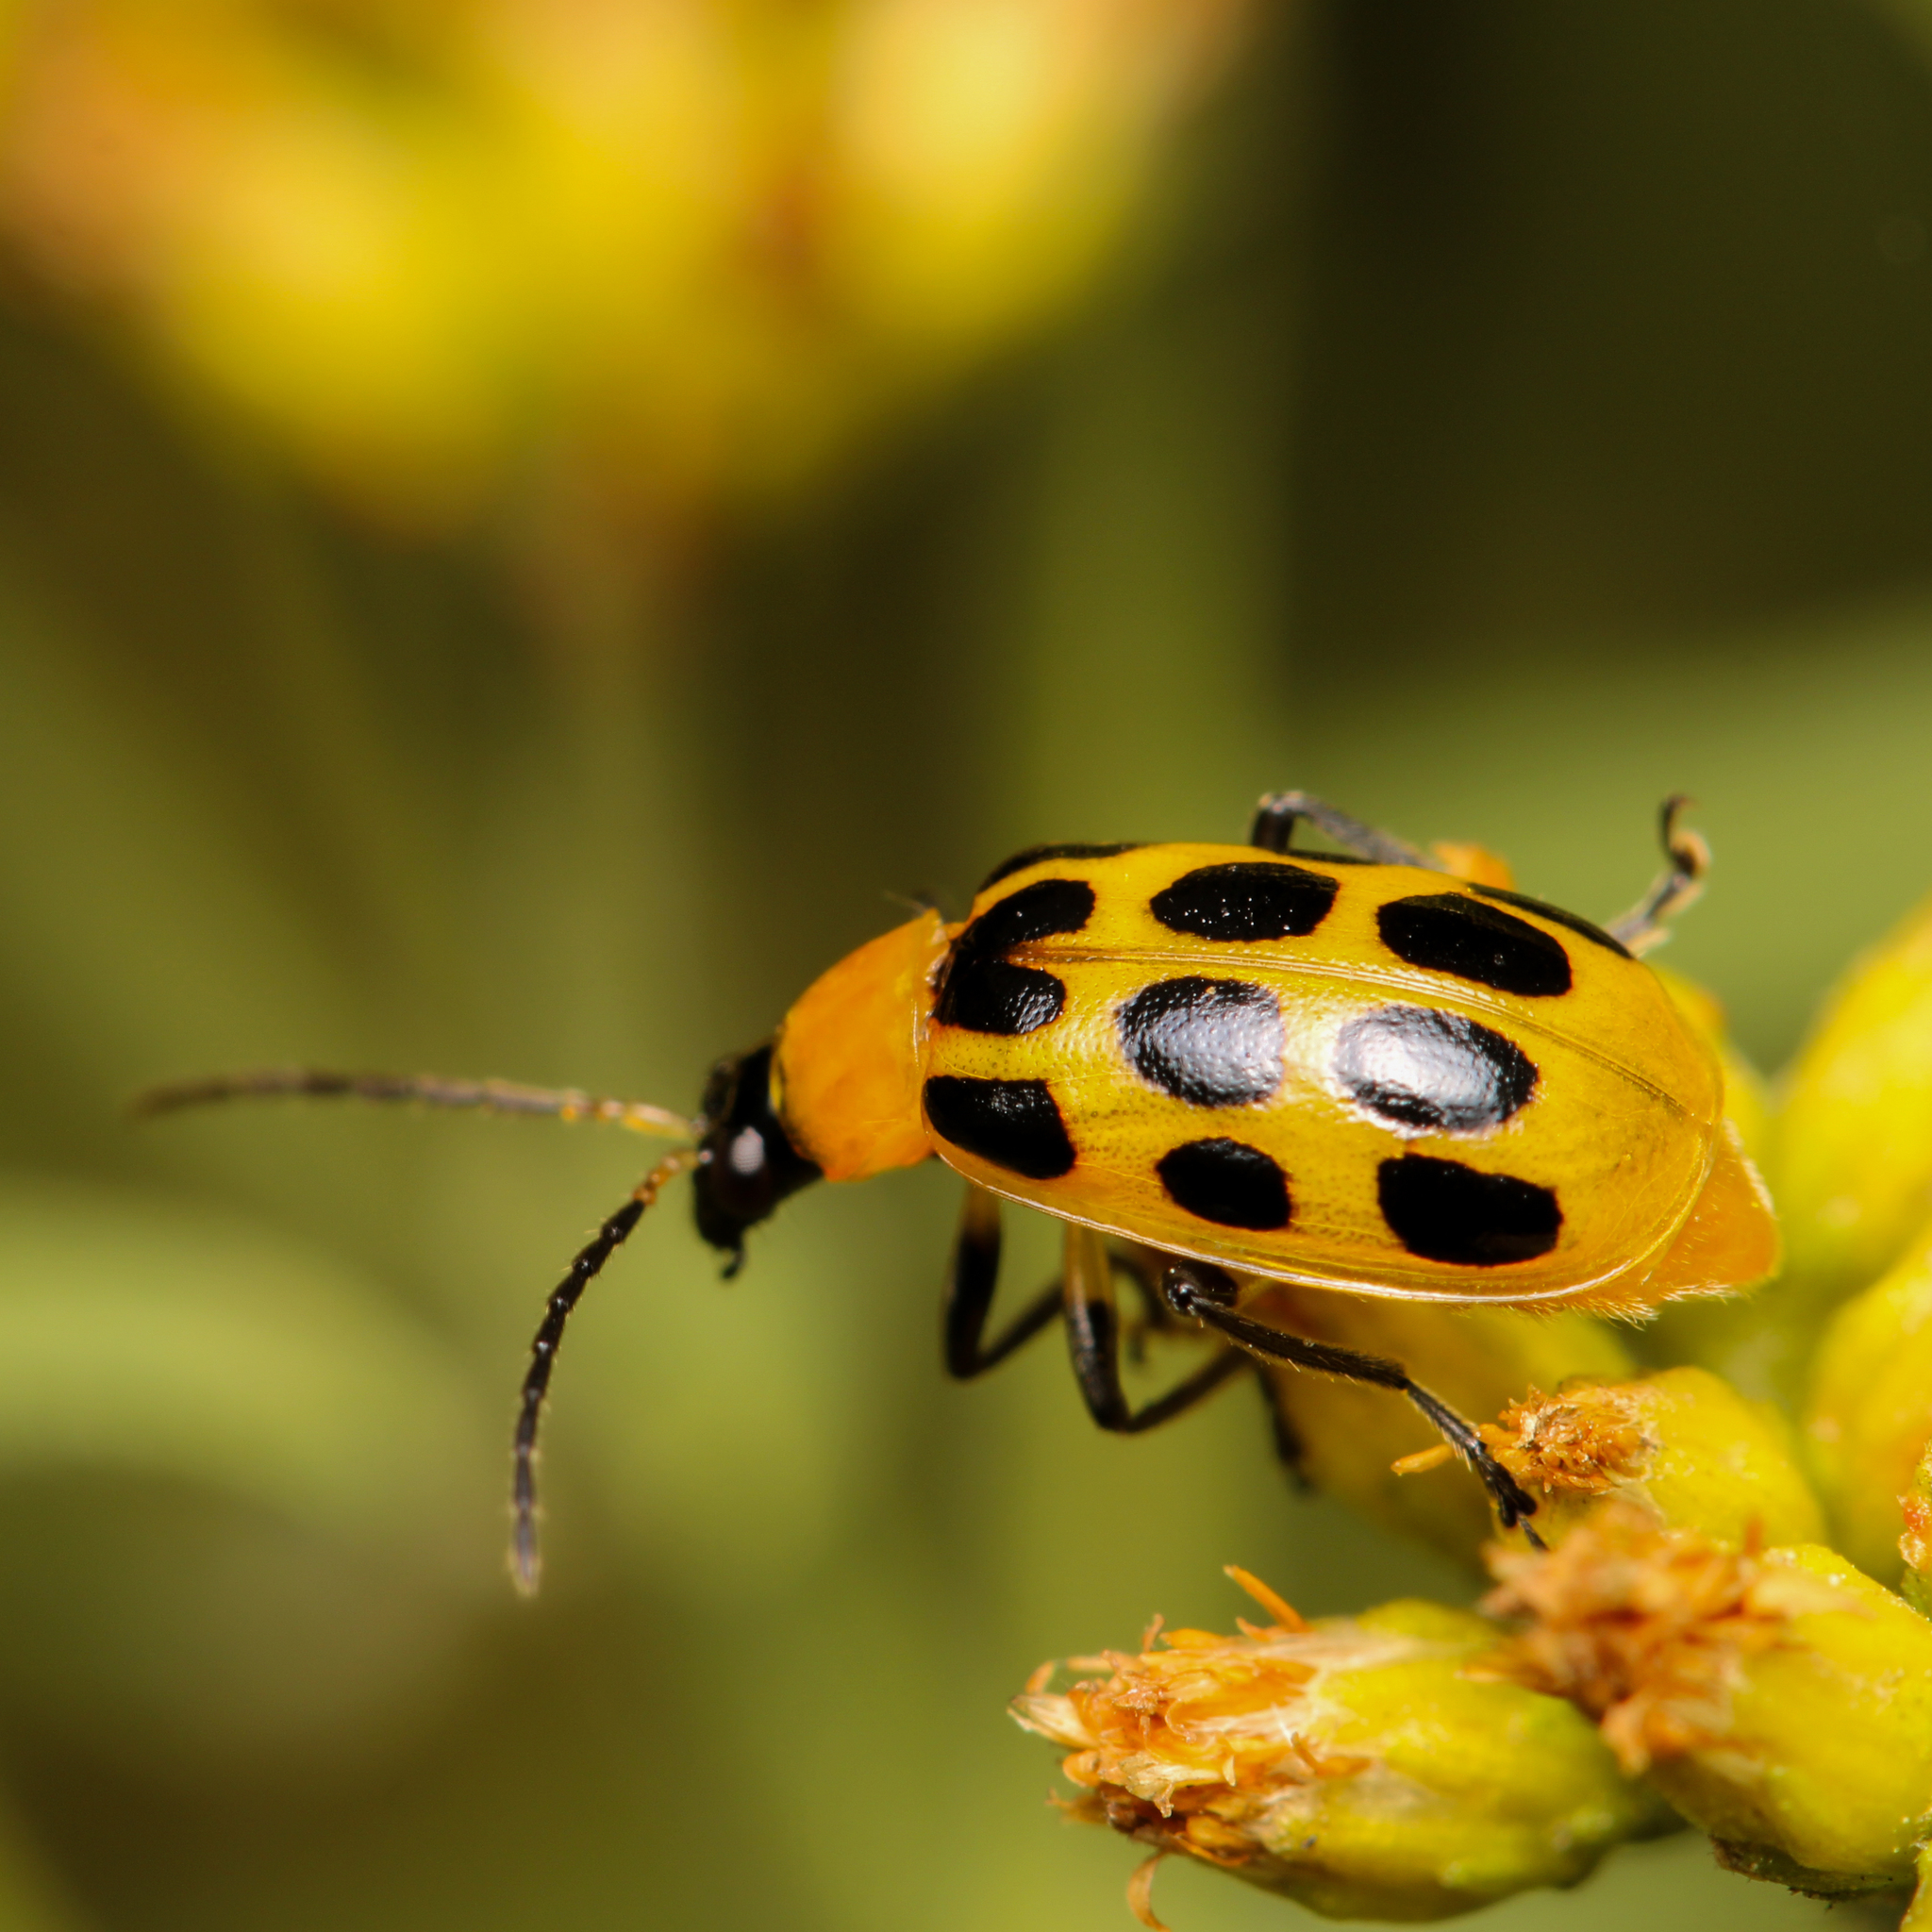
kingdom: Animalia
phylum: Arthropoda
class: Insecta
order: Coleoptera
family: Chrysomelidae
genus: Diabrotica
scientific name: Diabrotica undecimpunctata
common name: Spotted cucumber beetle
